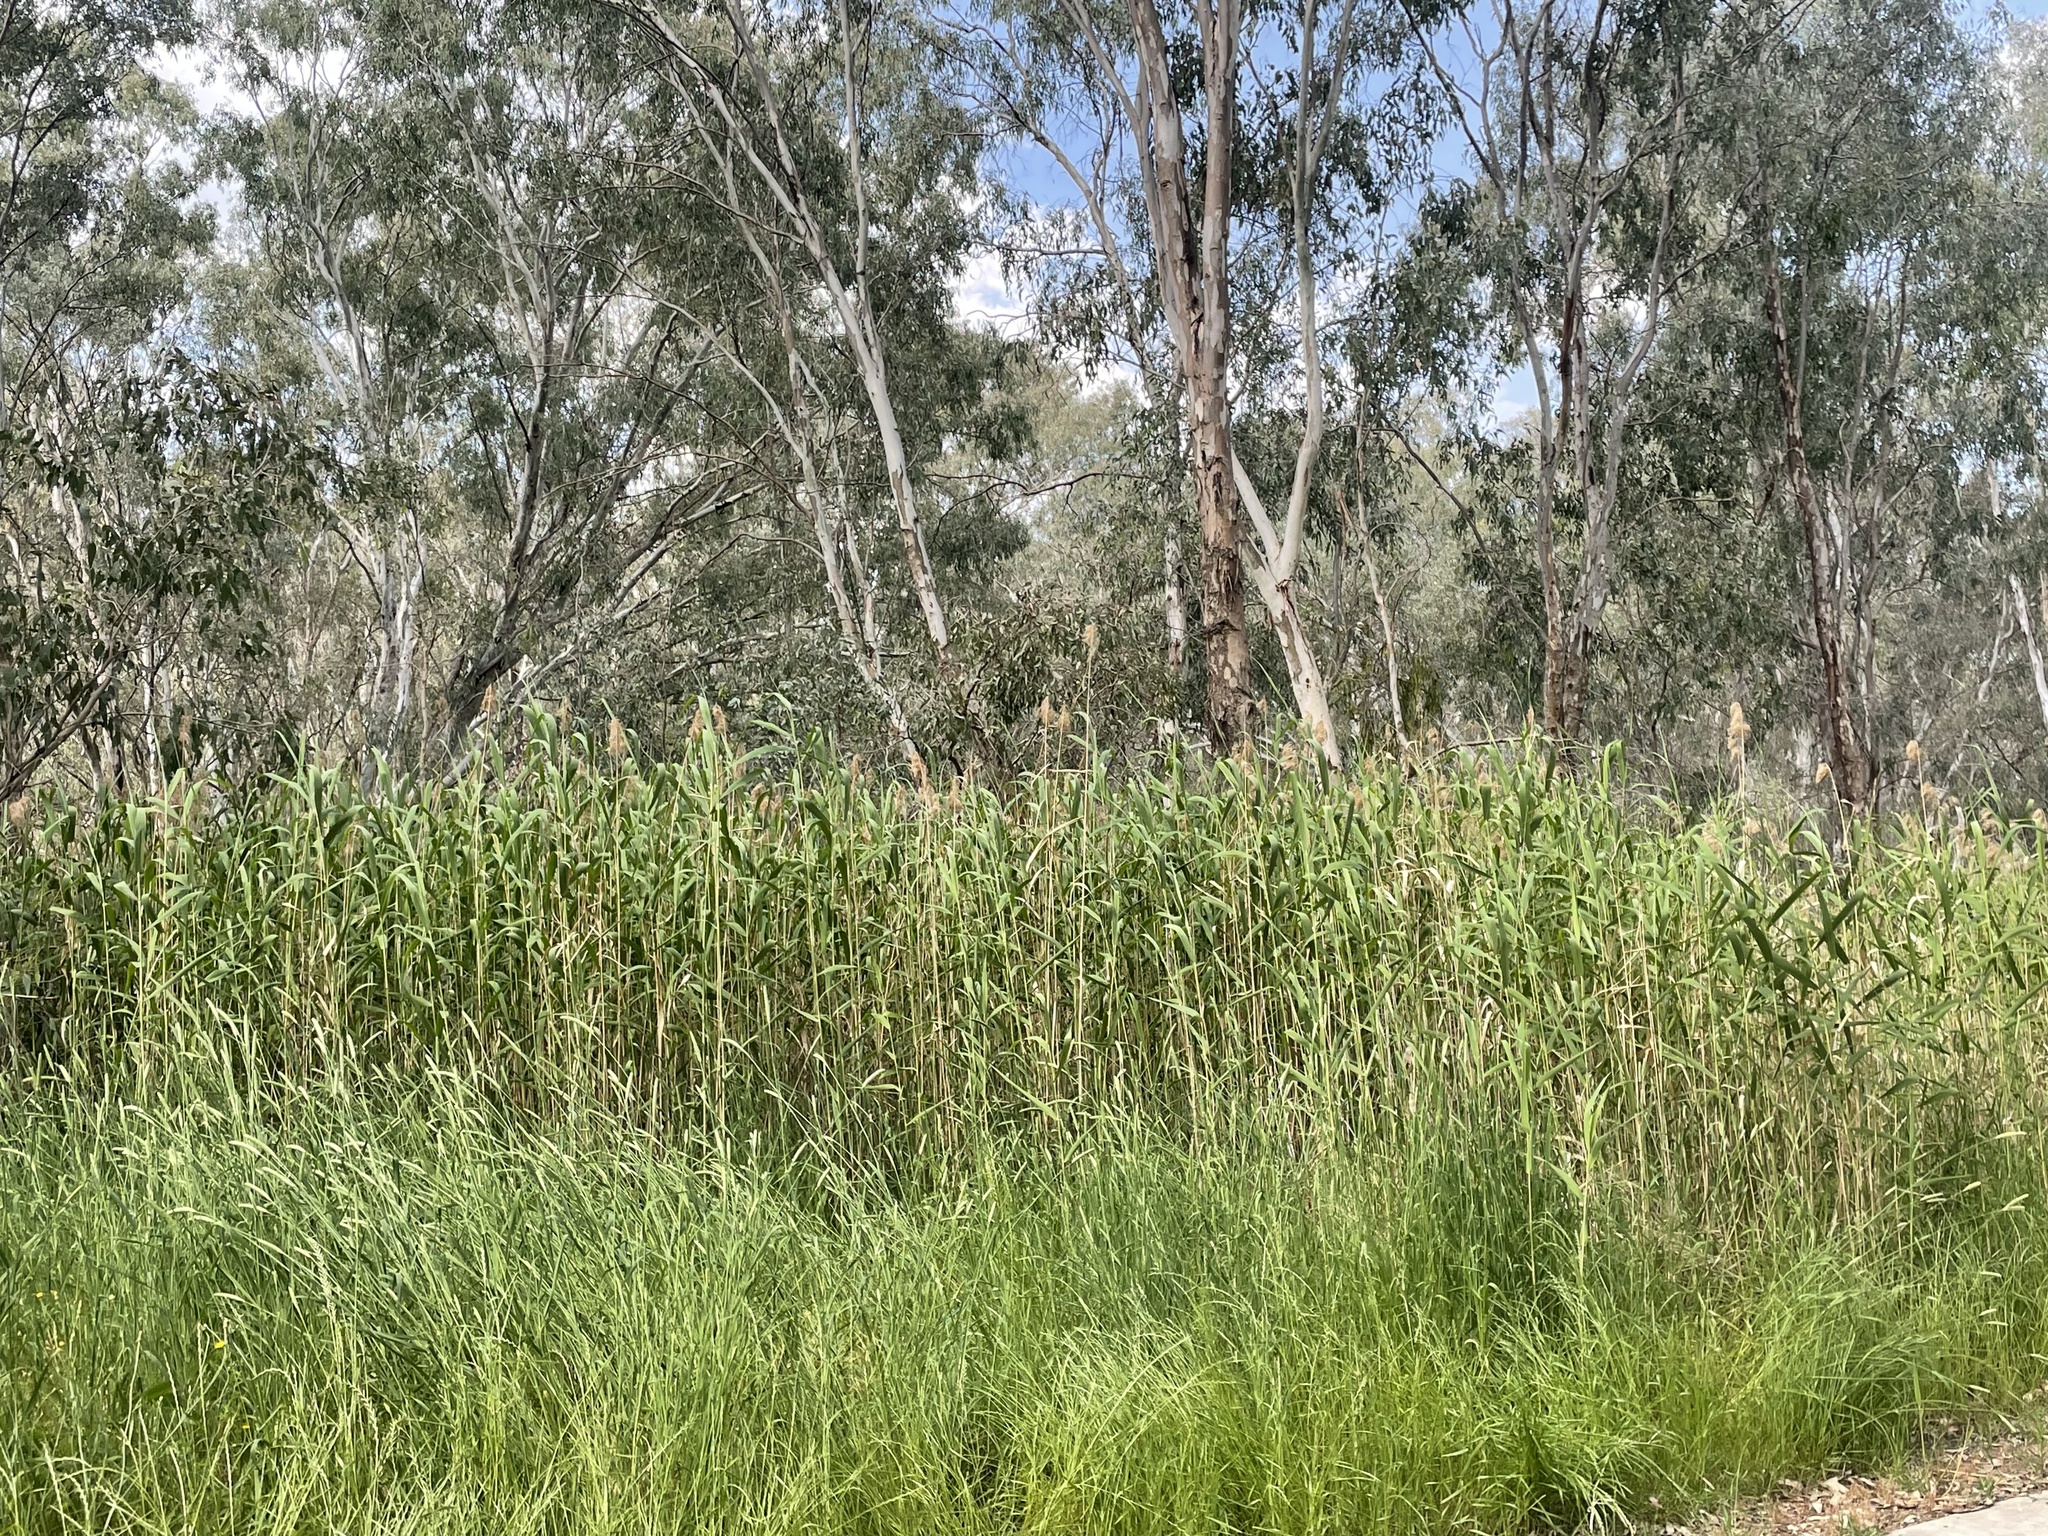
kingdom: Plantae
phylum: Tracheophyta
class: Liliopsida
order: Poales
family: Poaceae
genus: Phragmites
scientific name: Phragmites australis
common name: Common reed
